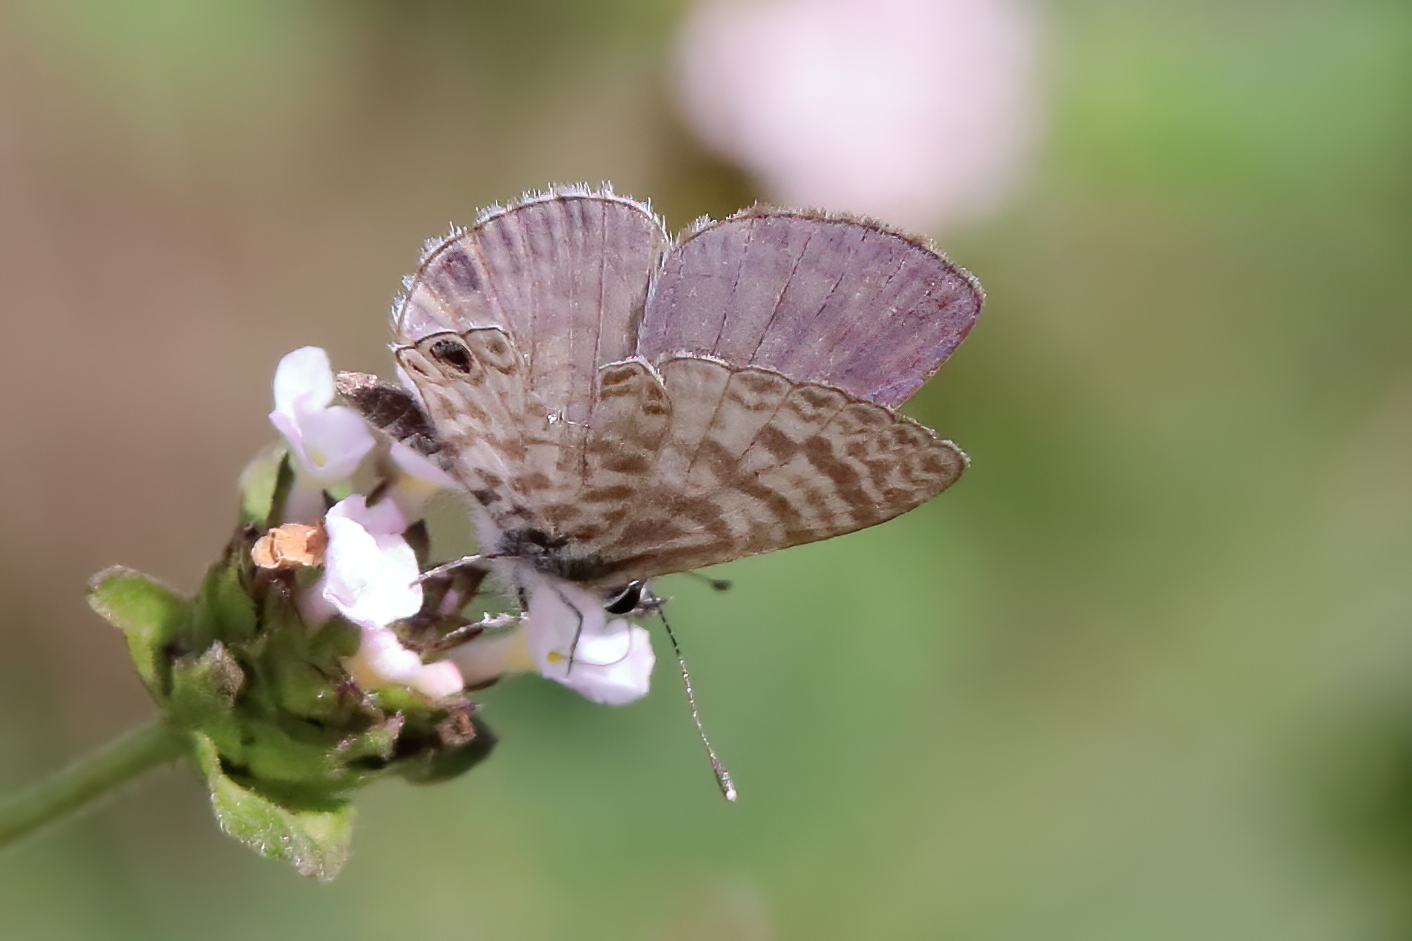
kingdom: Animalia
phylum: Arthropoda
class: Insecta
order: Lepidoptera
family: Lycaenidae
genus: Leptotes
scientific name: Leptotes cassius
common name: Cassius blue
